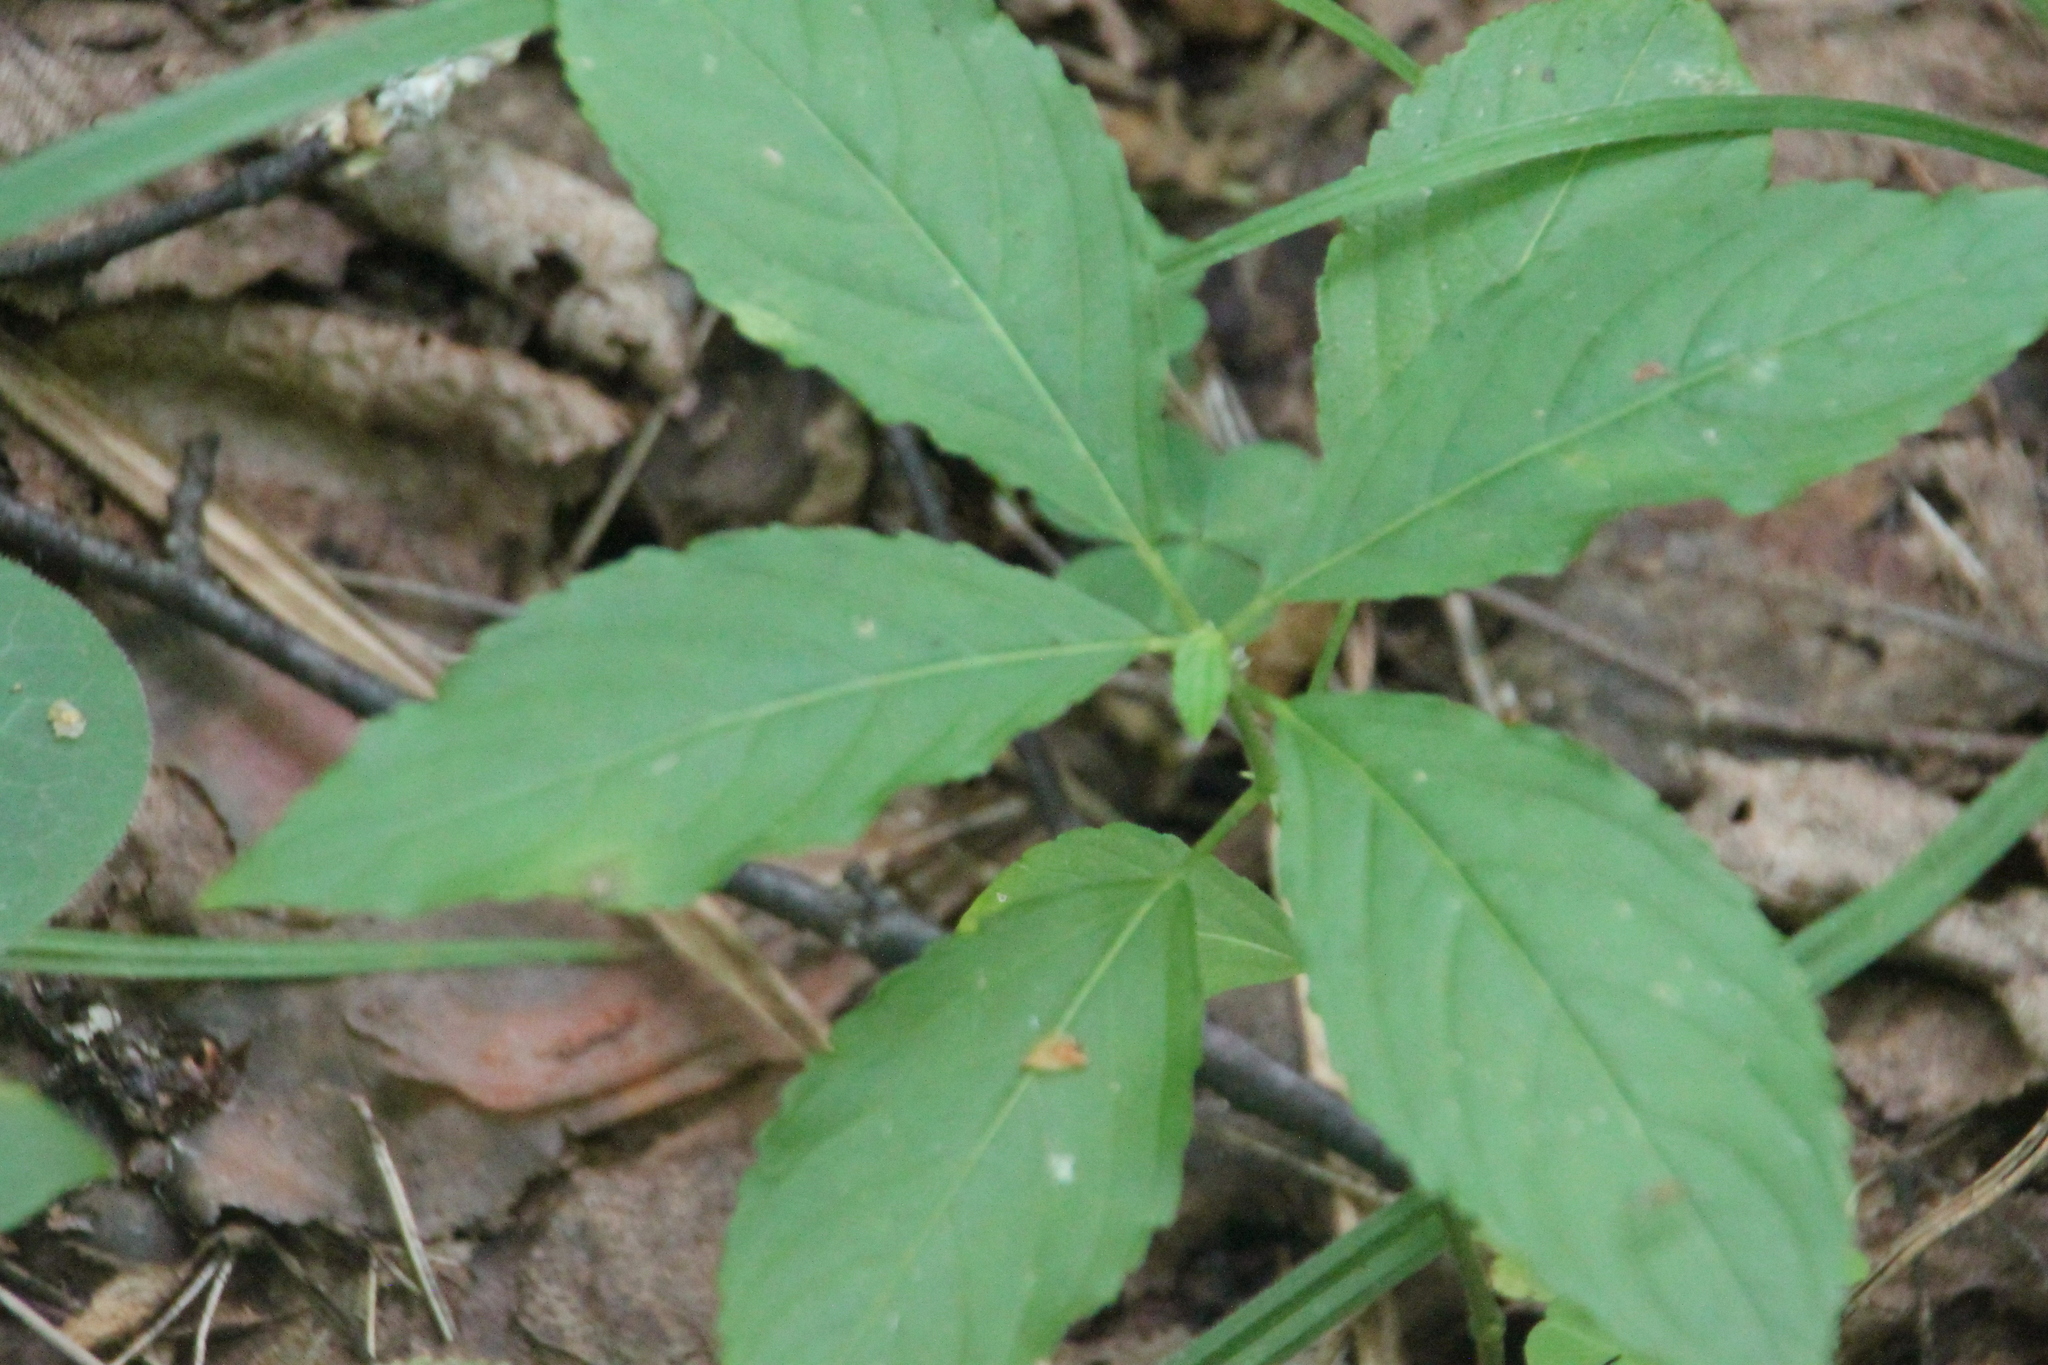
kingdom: Plantae
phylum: Tracheophyta
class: Magnoliopsida
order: Malpighiales
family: Euphorbiaceae
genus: Mercurialis
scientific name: Mercurialis perennis
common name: Dog mercury
